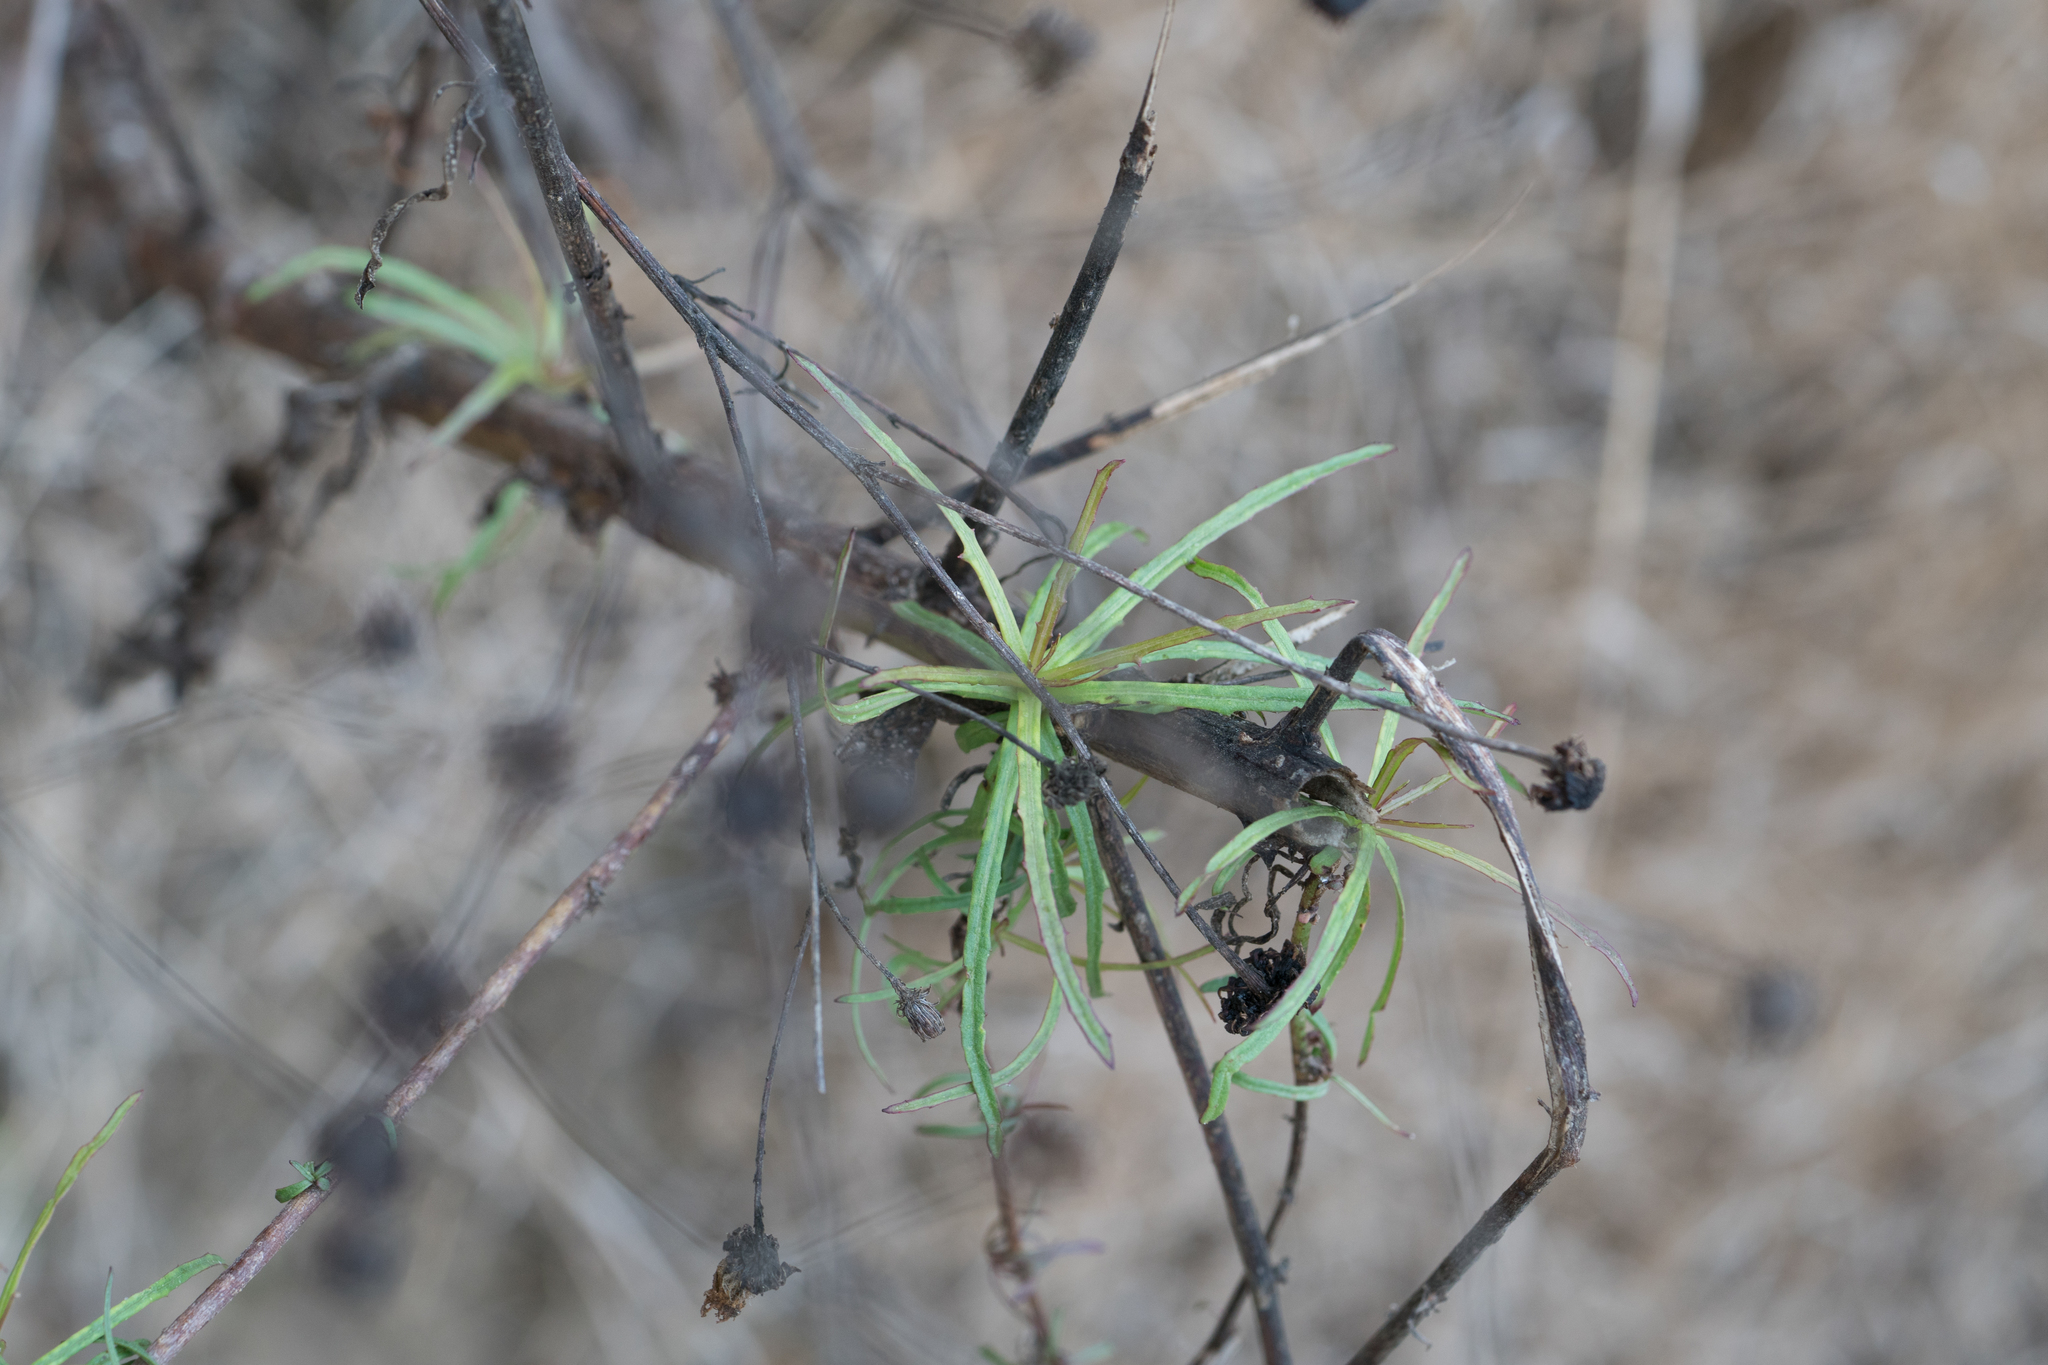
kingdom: Plantae
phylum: Tracheophyta
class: Magnoliopsida
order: Asterales
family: Asteraceae
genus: Malacothrix
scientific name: Malacothrix saxatilis
